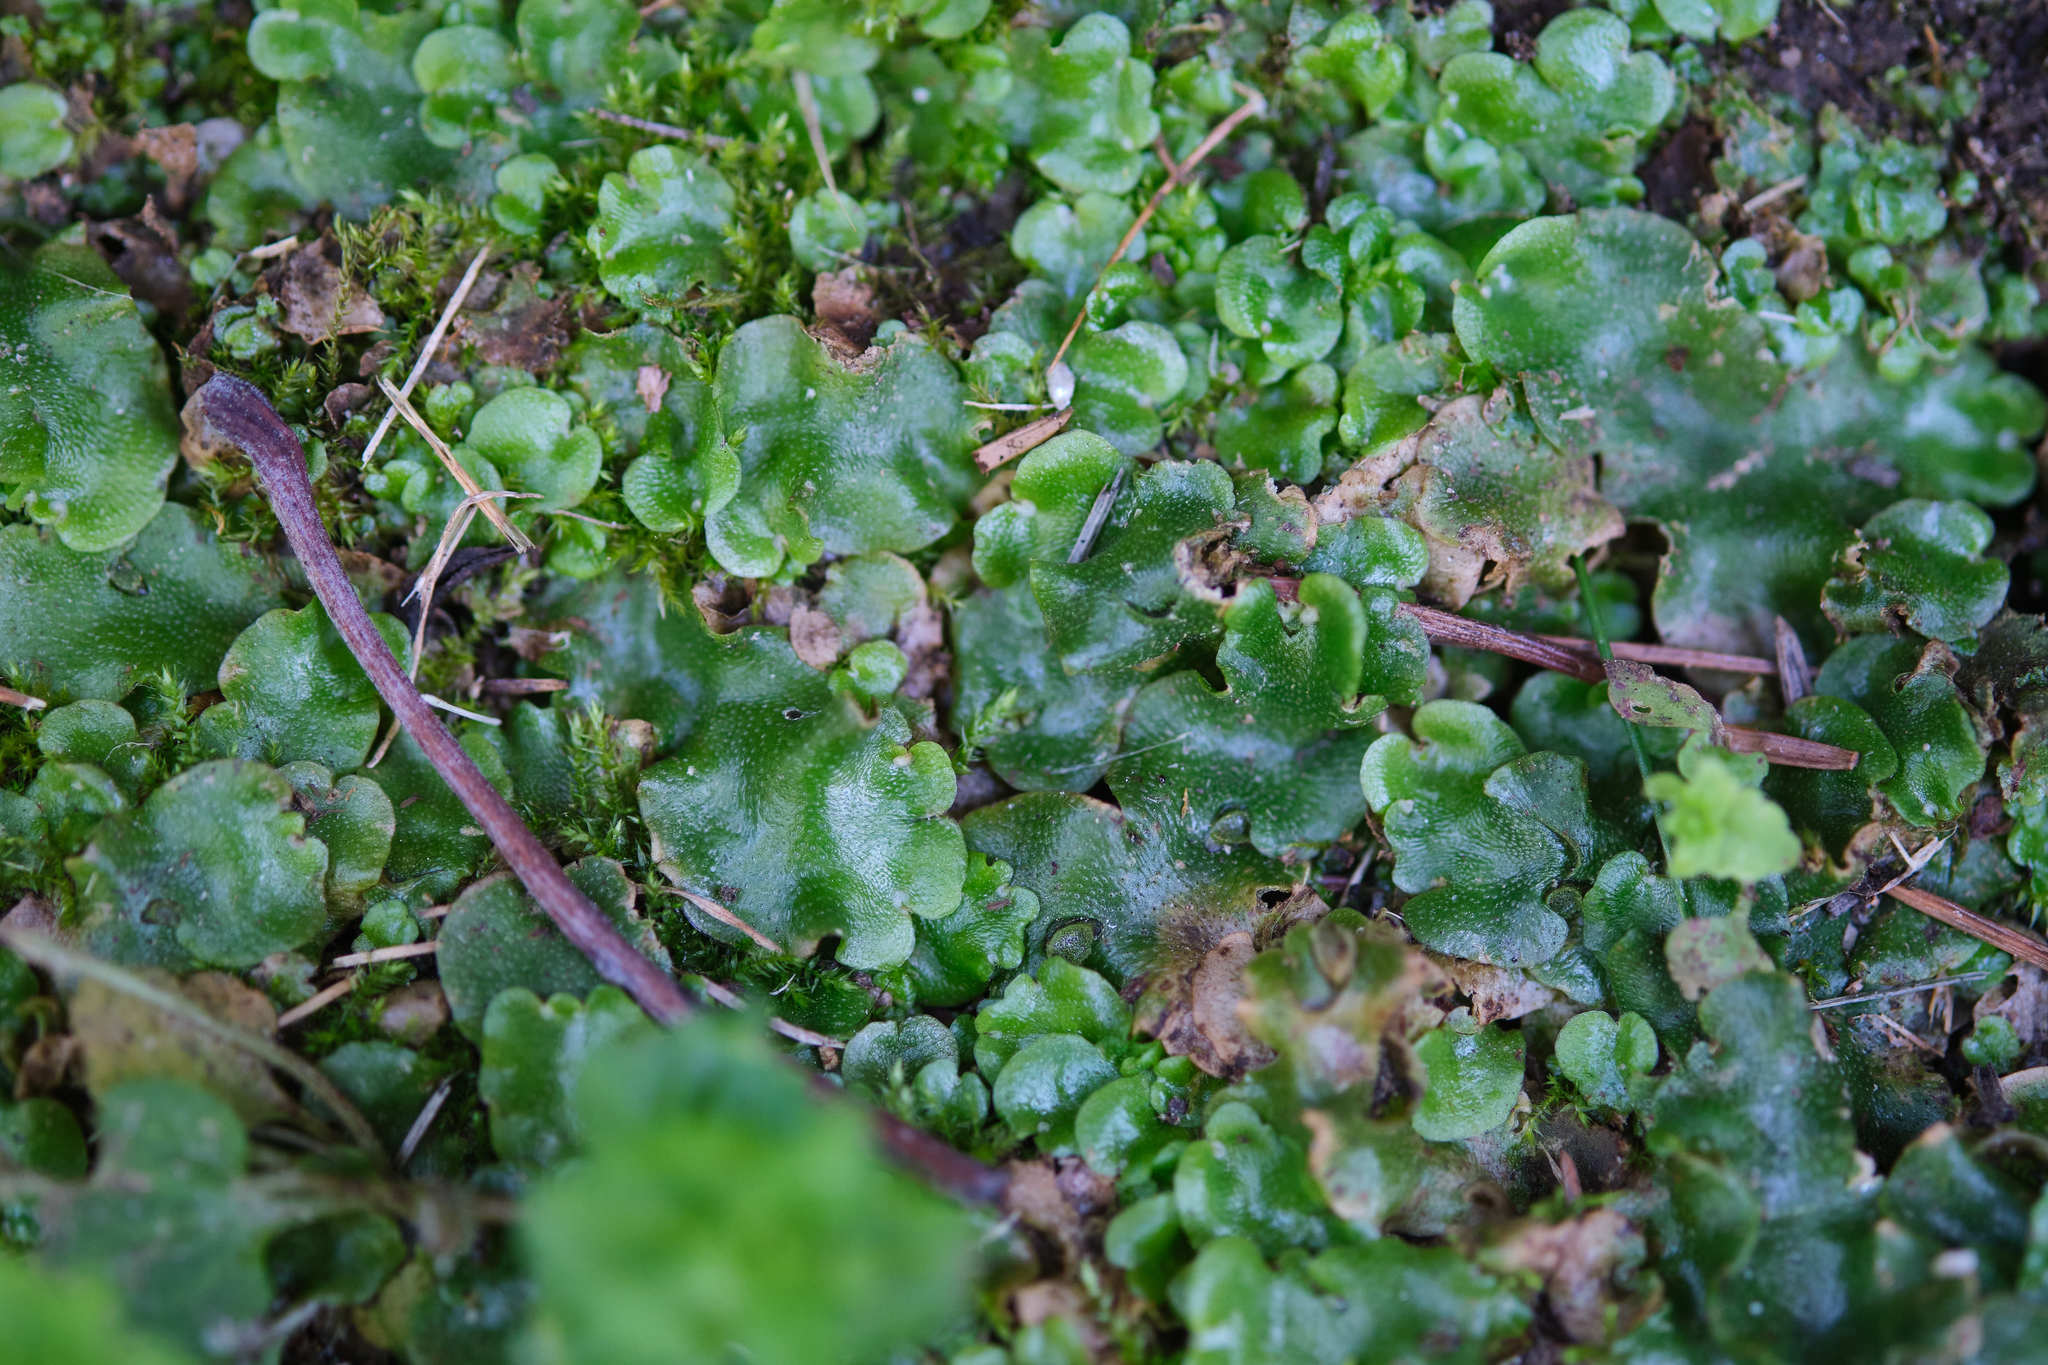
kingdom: Plantae
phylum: Marchantiophyta
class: Marchantiopsida
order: Lunulariales
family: Lunulariaceae
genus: Lunularia
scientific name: Lunularia cruciata
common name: Crescent-cup liverwort
